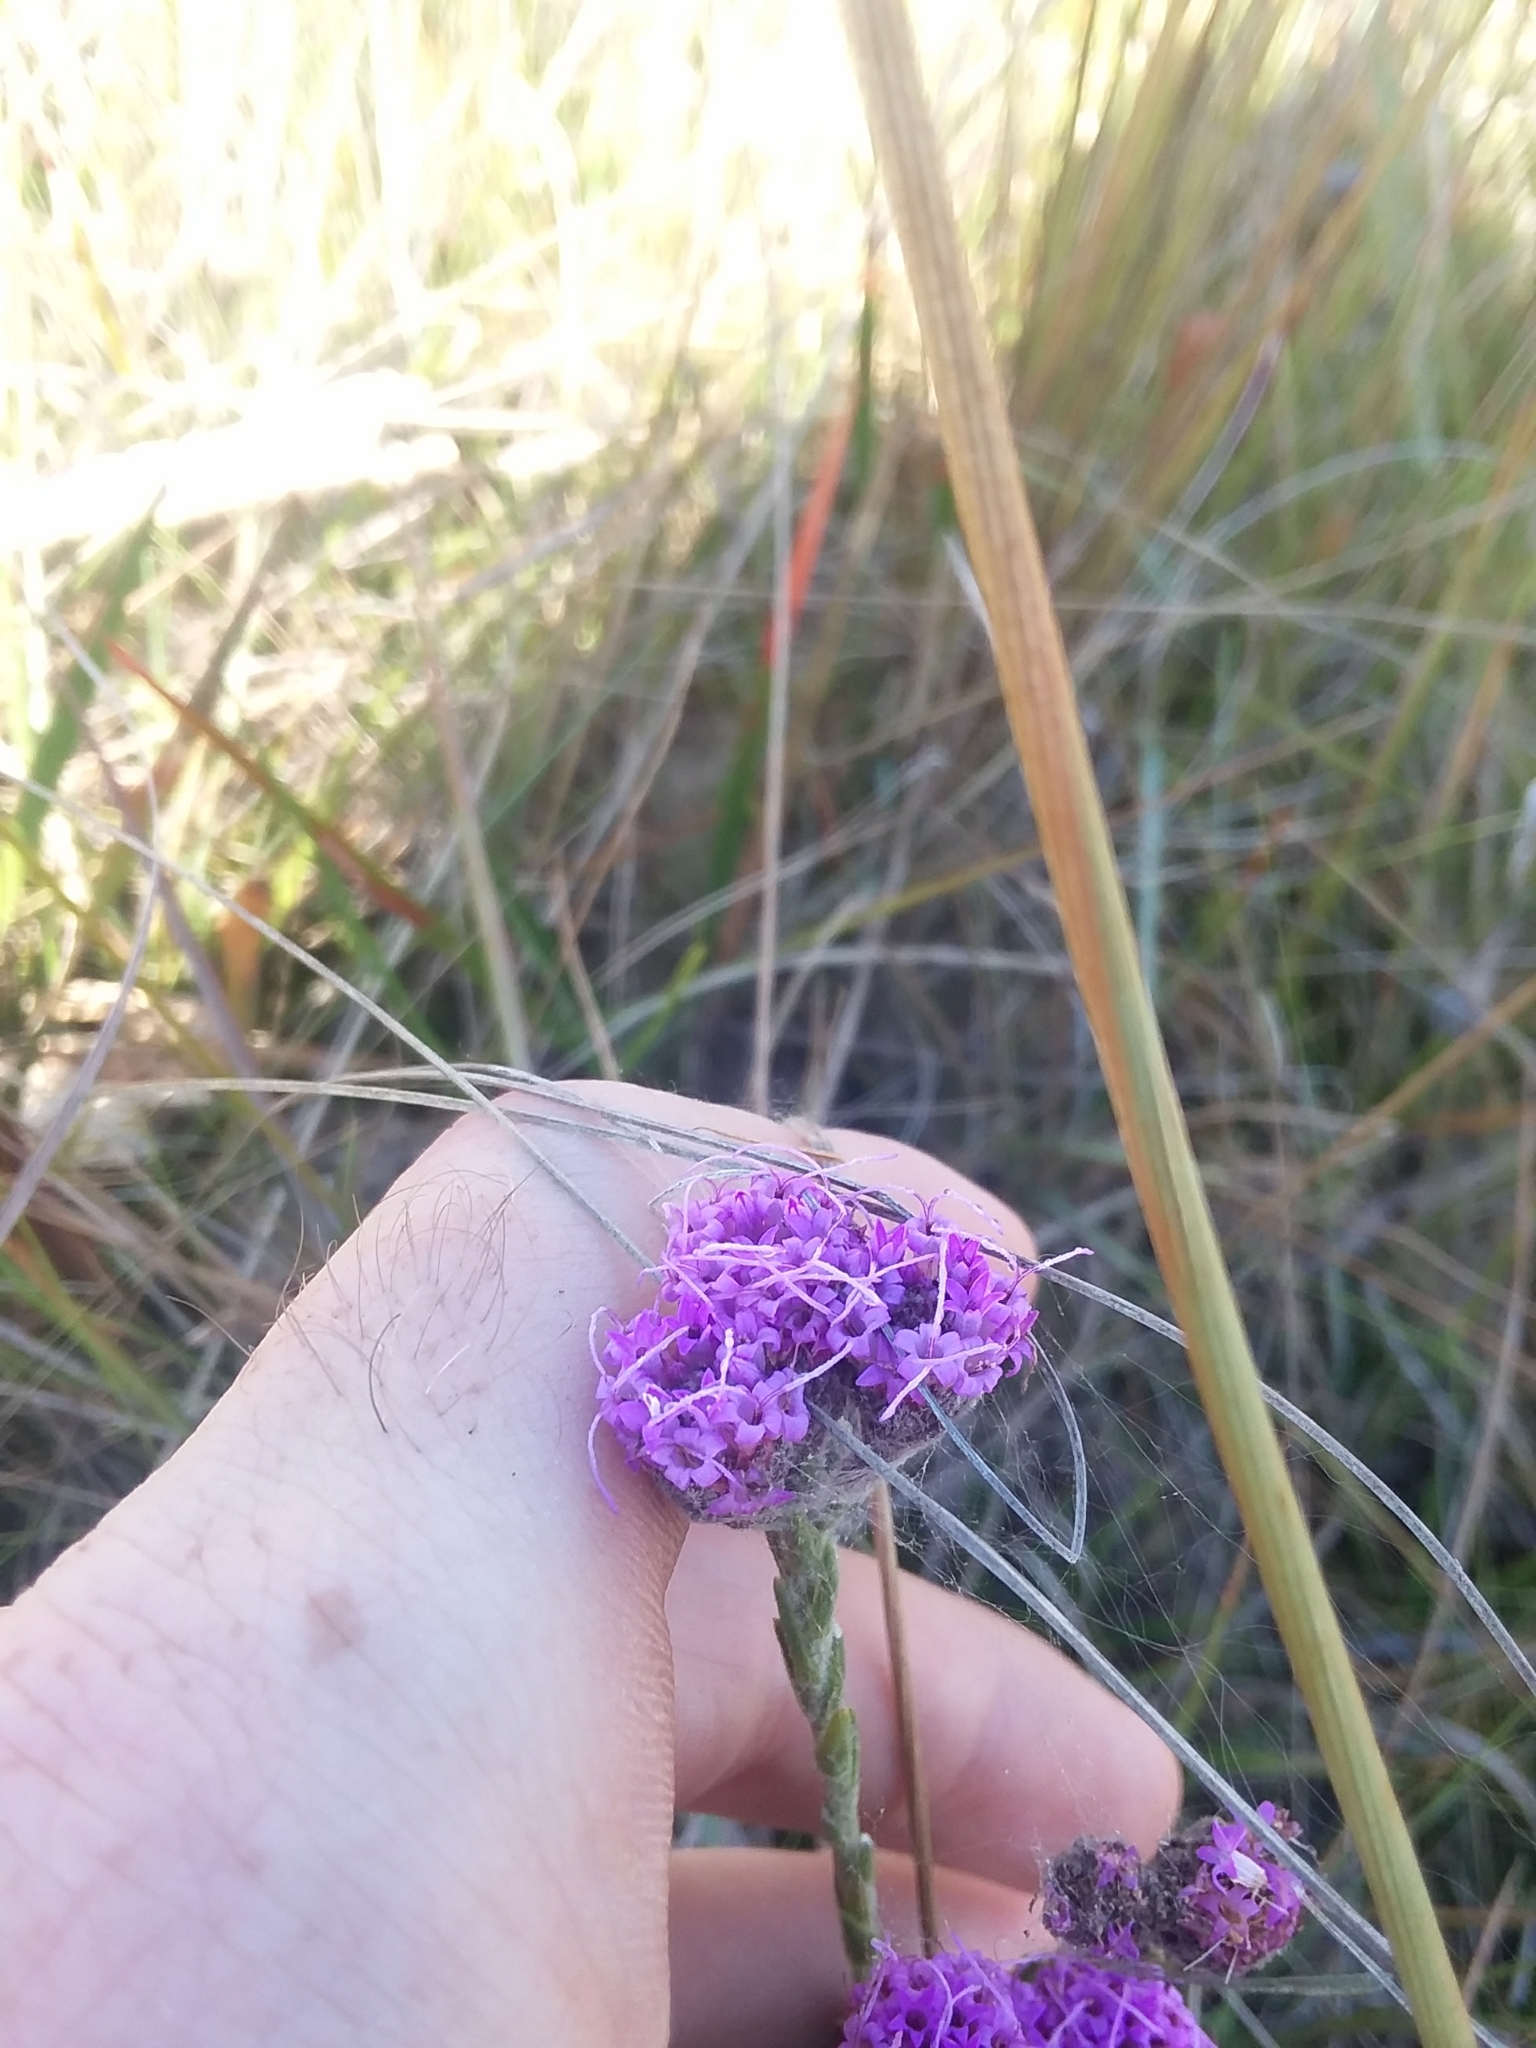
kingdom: Plantae
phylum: Tracheophyta
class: Magnoliopsida
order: Asterales
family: Asteraceae
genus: Carphephorus
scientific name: Carphephorus pseudoliatris
